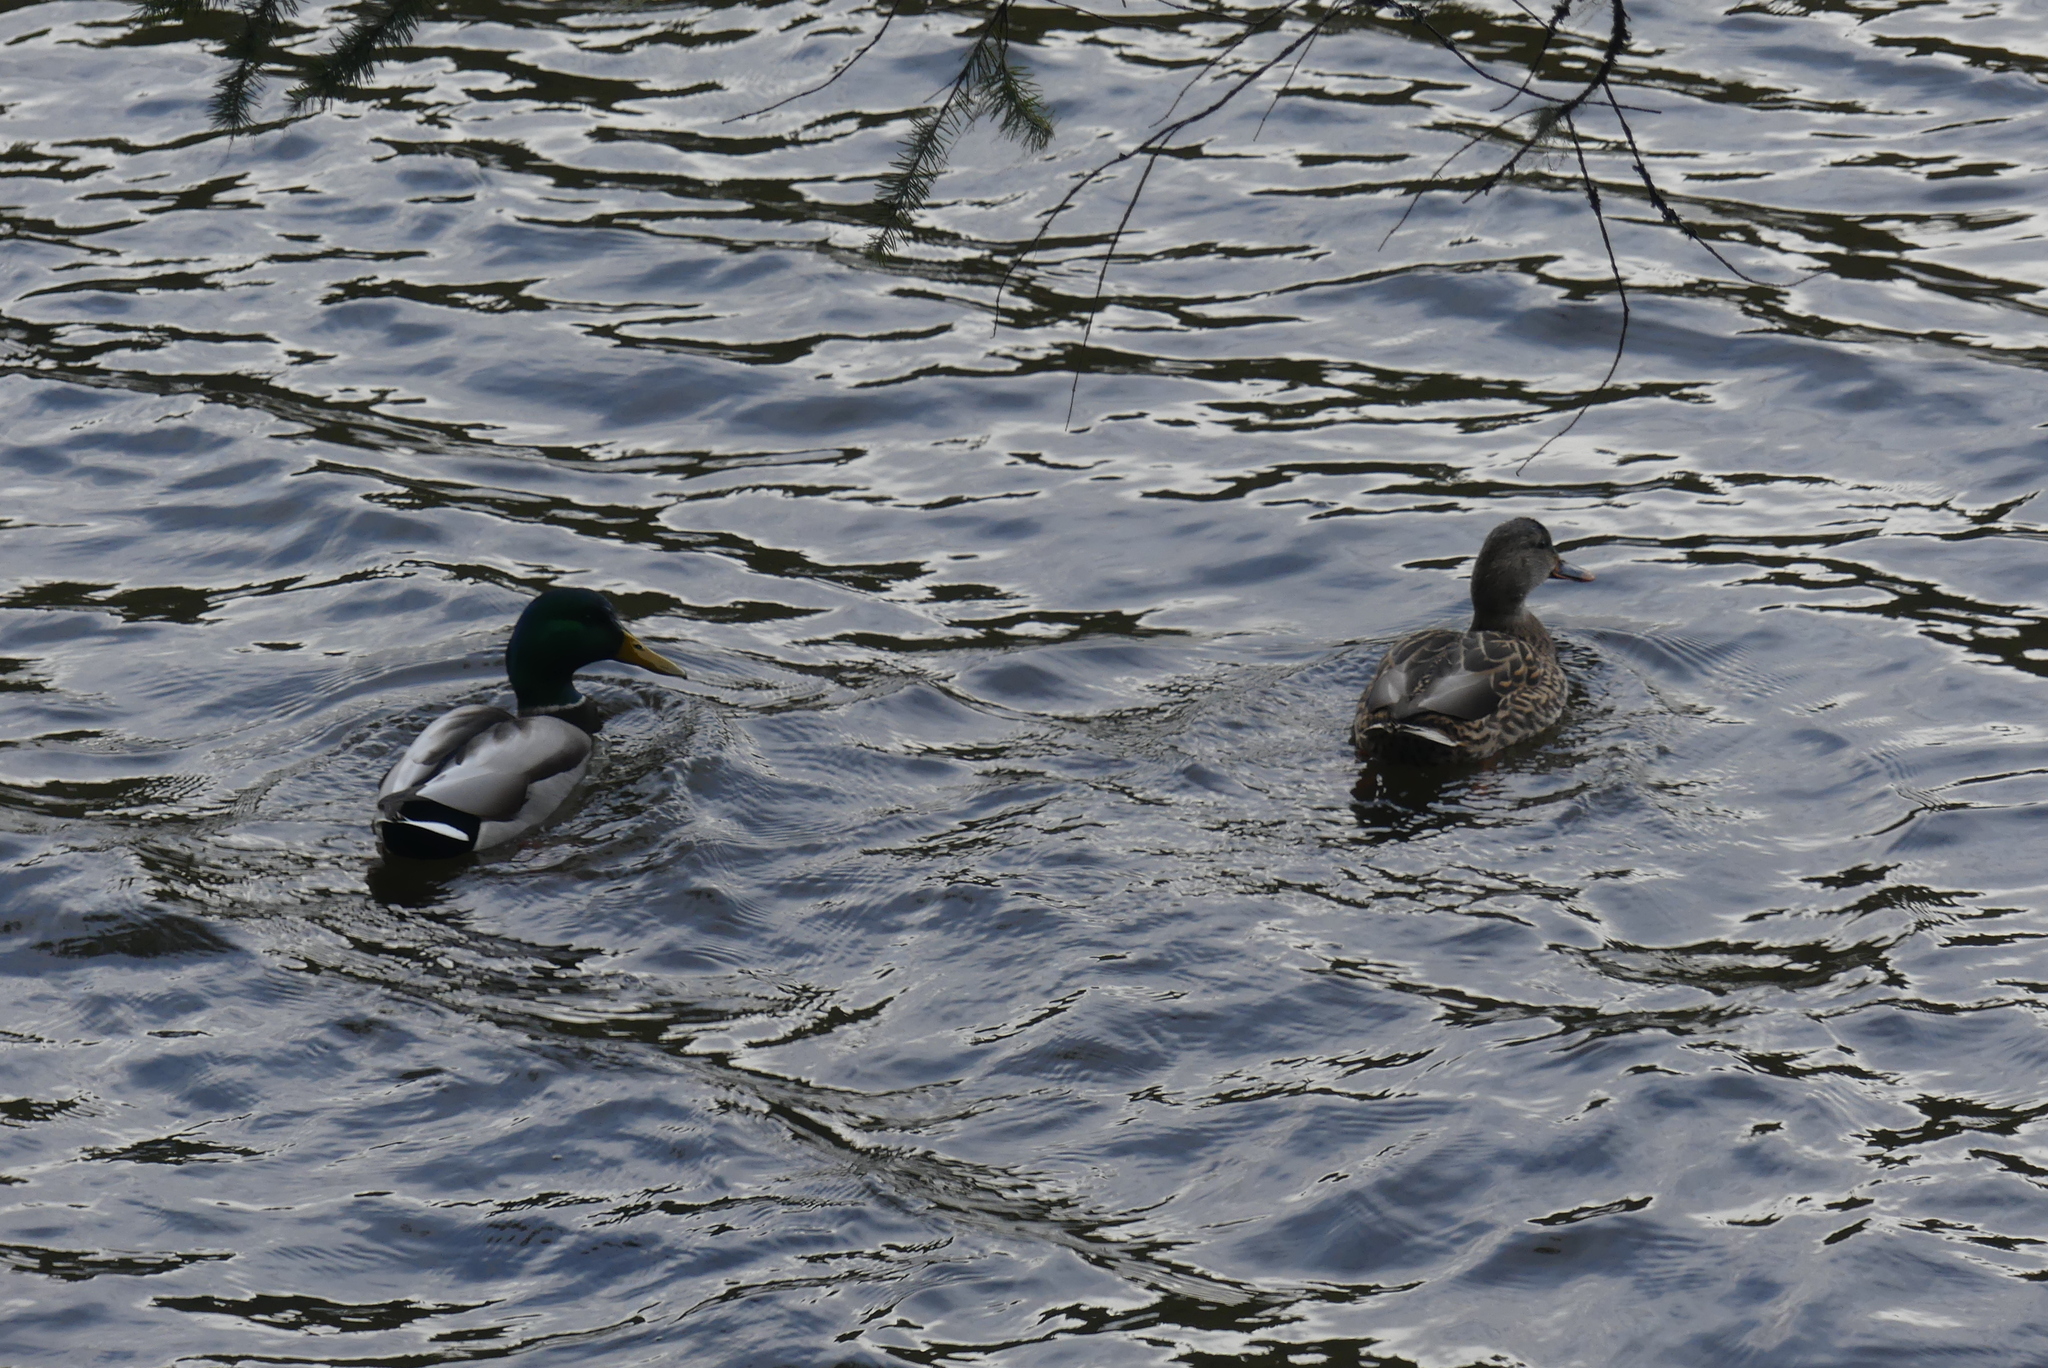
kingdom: Animalia
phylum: Chordata
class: Aves
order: Anseriformes
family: Anatidae
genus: Anas
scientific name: Anas platyrhynchos
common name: Mallard
